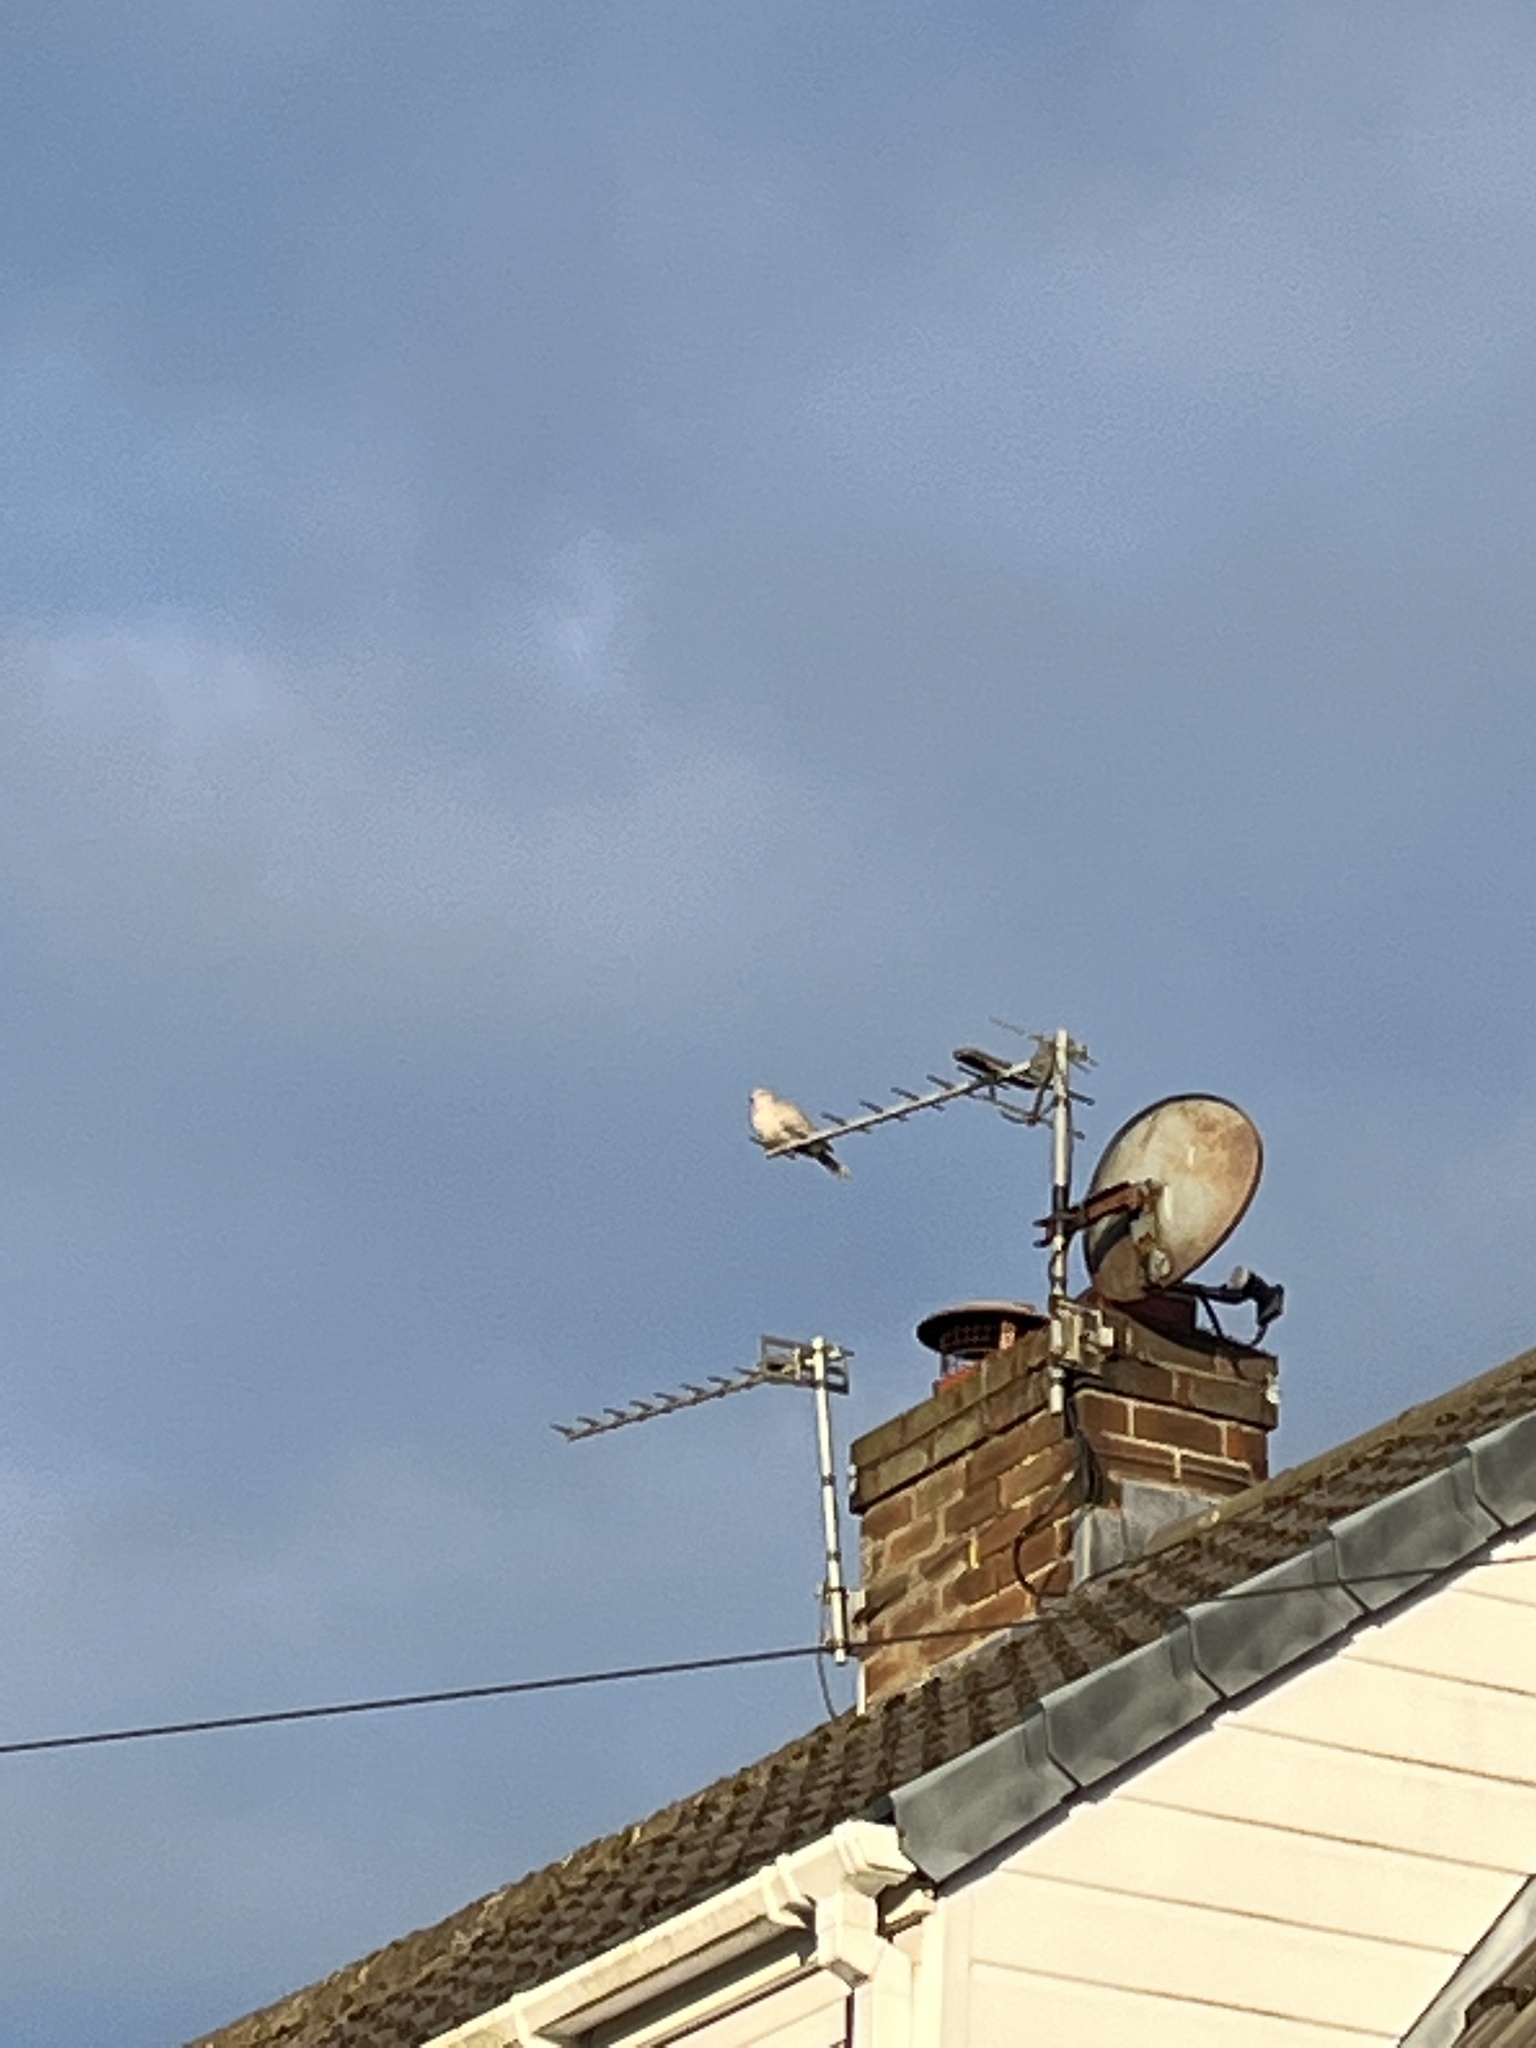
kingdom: Animalia
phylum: Chordata
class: Aves
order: Columbiformes
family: Columbidae
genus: Streptopelia
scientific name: Streptopelia decaocto
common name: Eurasian collared dove
